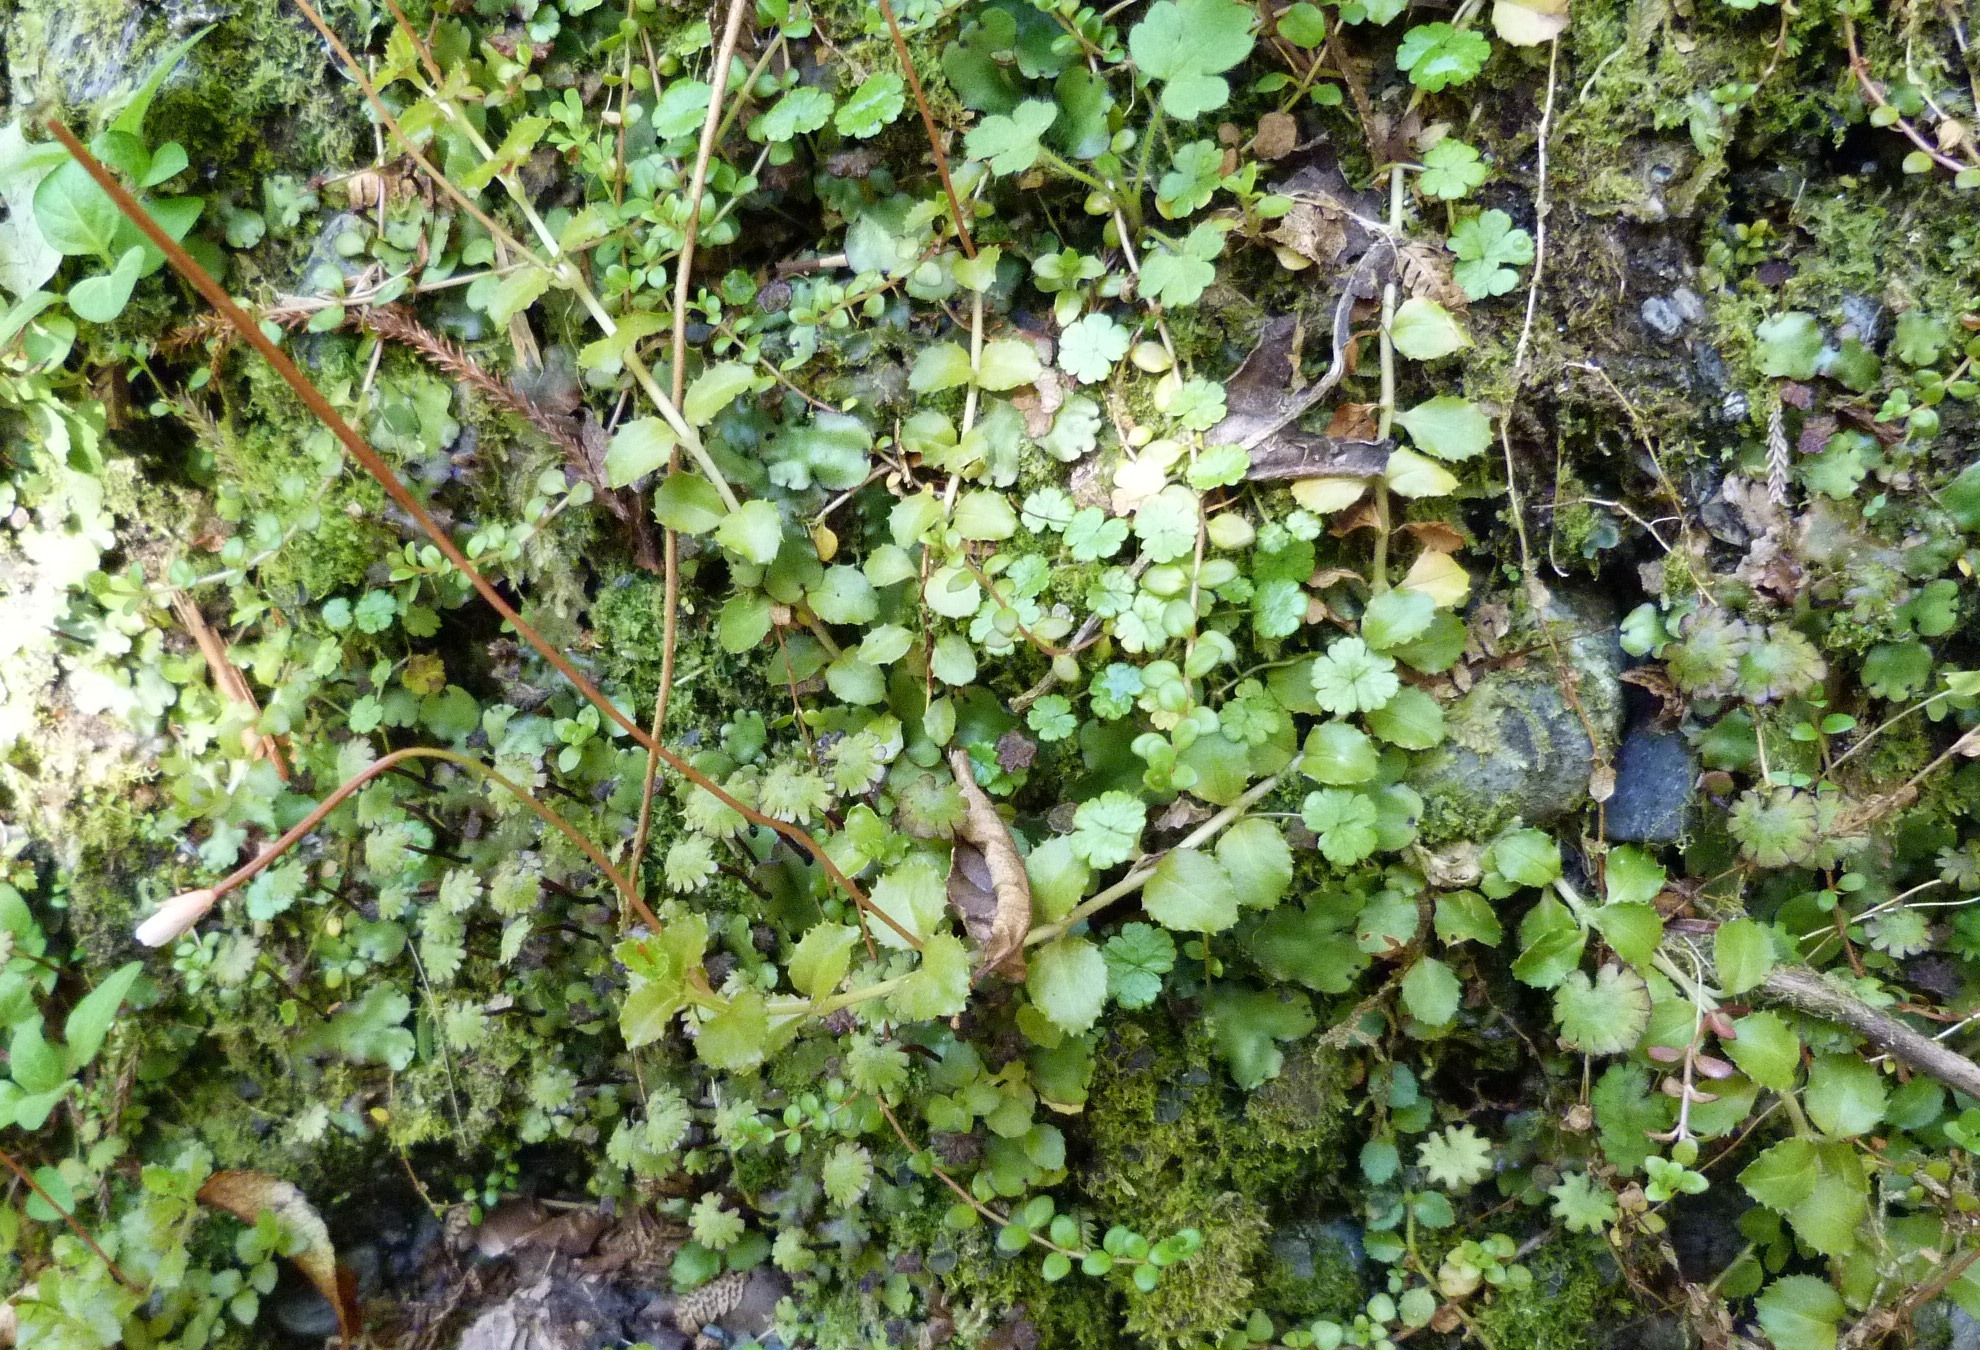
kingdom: Plantae
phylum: Tracheophyta
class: Magnoliopsida
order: Myrtales
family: Onagraceae
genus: Epilobium
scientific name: Epilobium pedunculare
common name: Rockery willowherb
